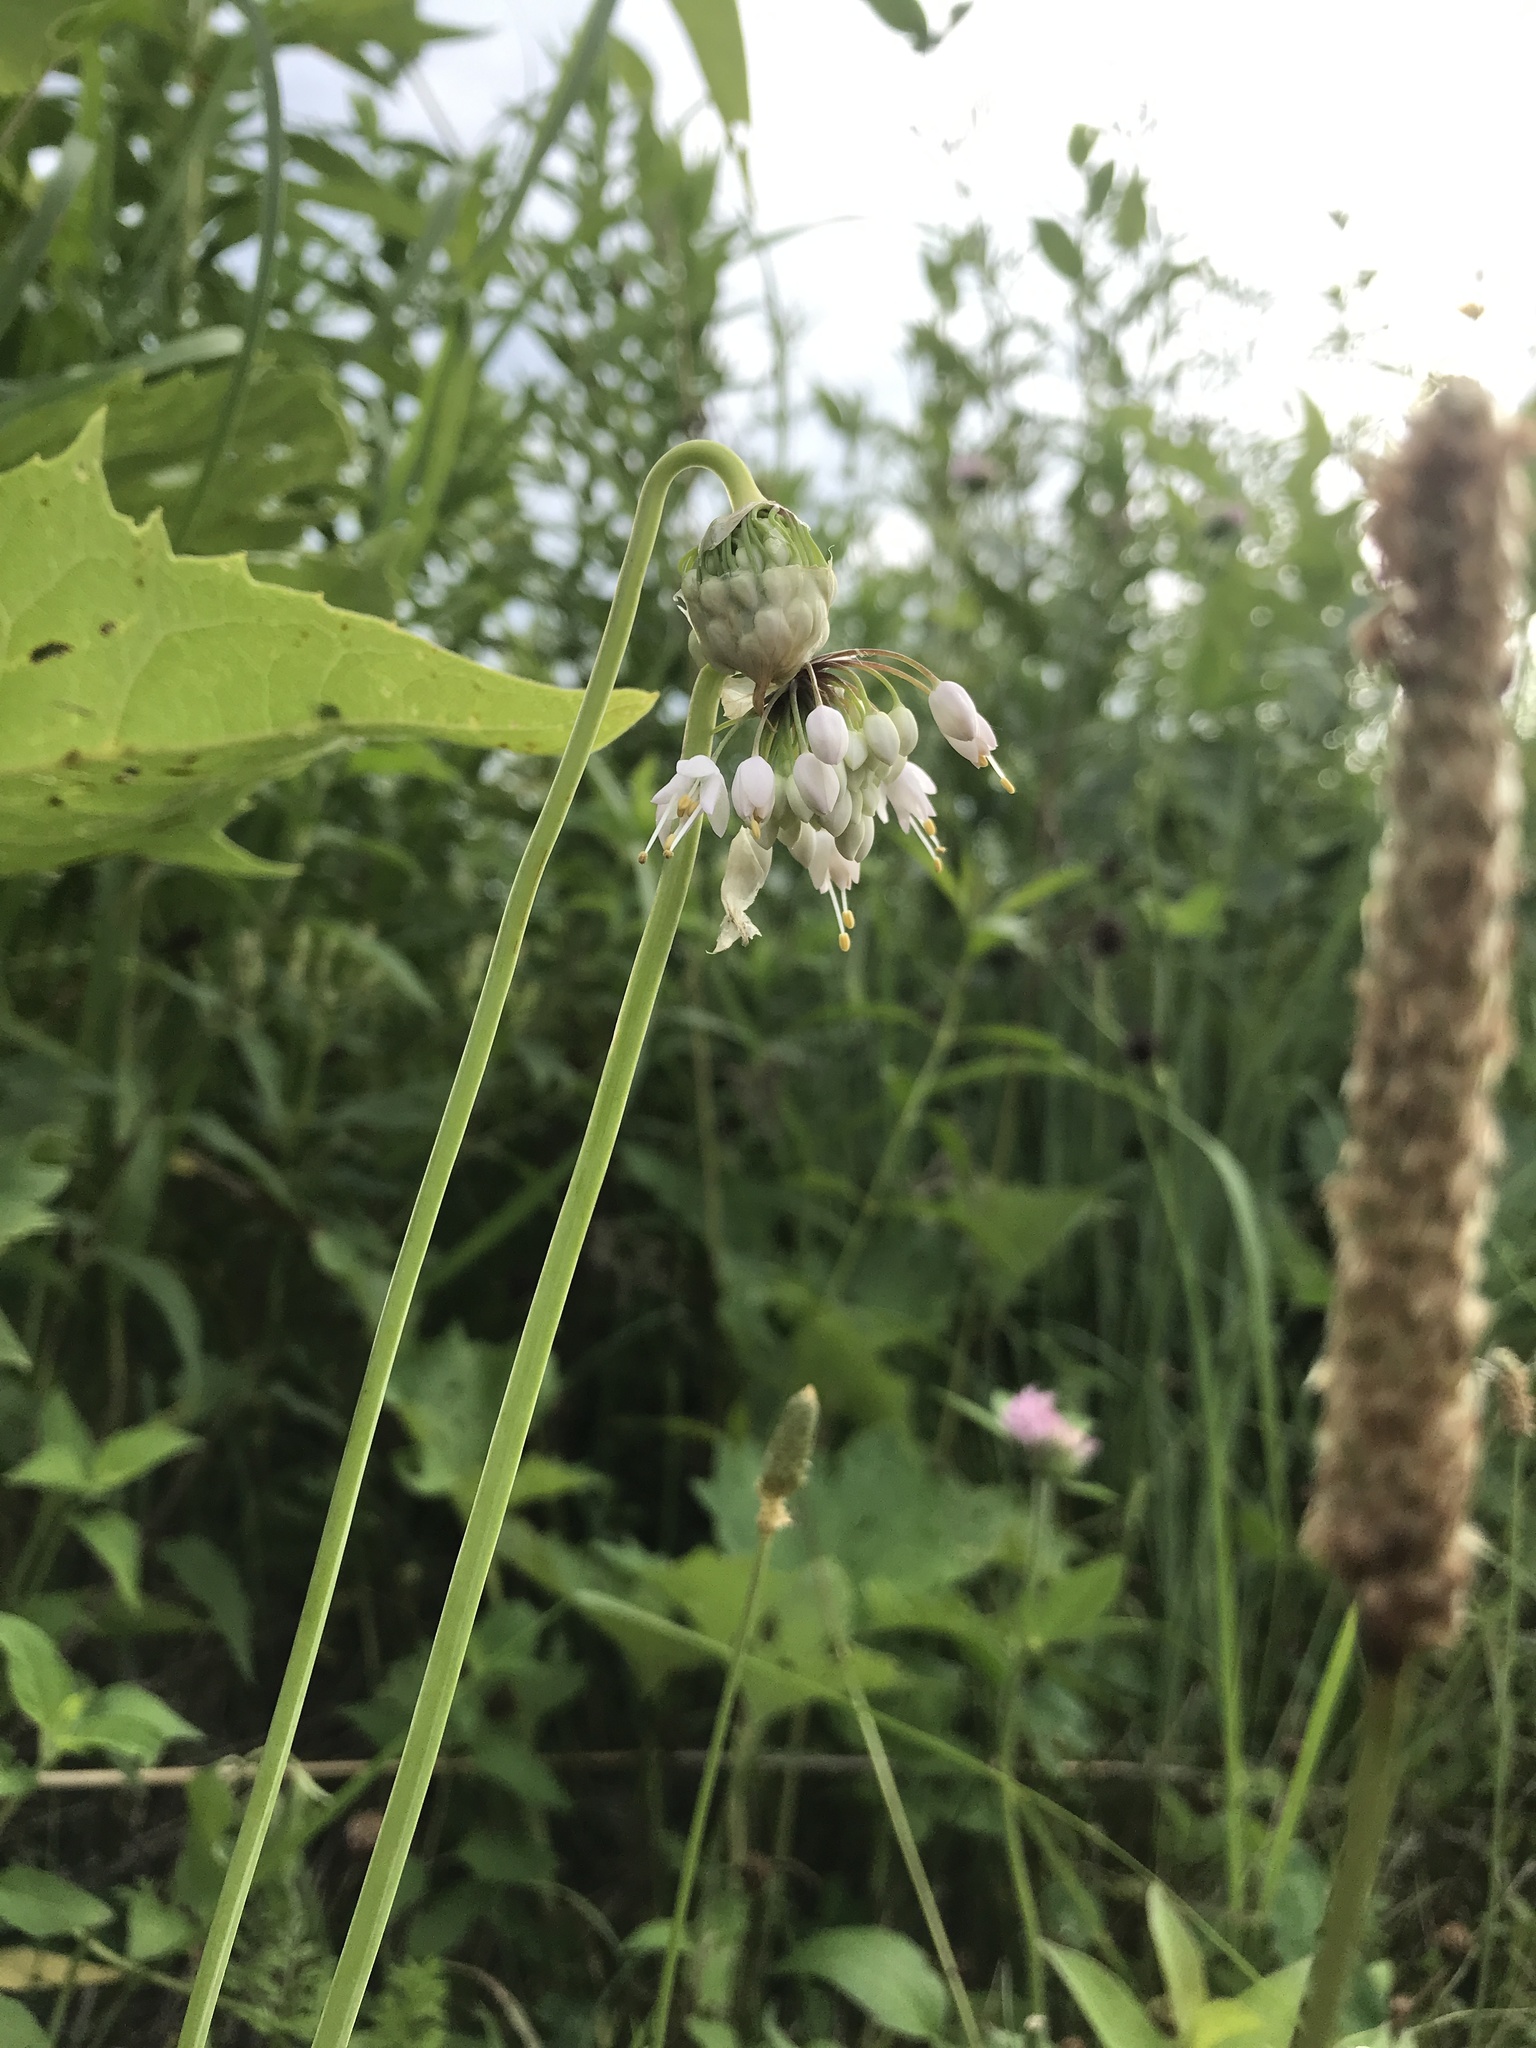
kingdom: Plantae
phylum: Tracheophyta
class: Liliopsida
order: Asparagales
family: Amaryllidaceae
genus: Allium
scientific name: Allium cernuum
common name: Nodding onion
